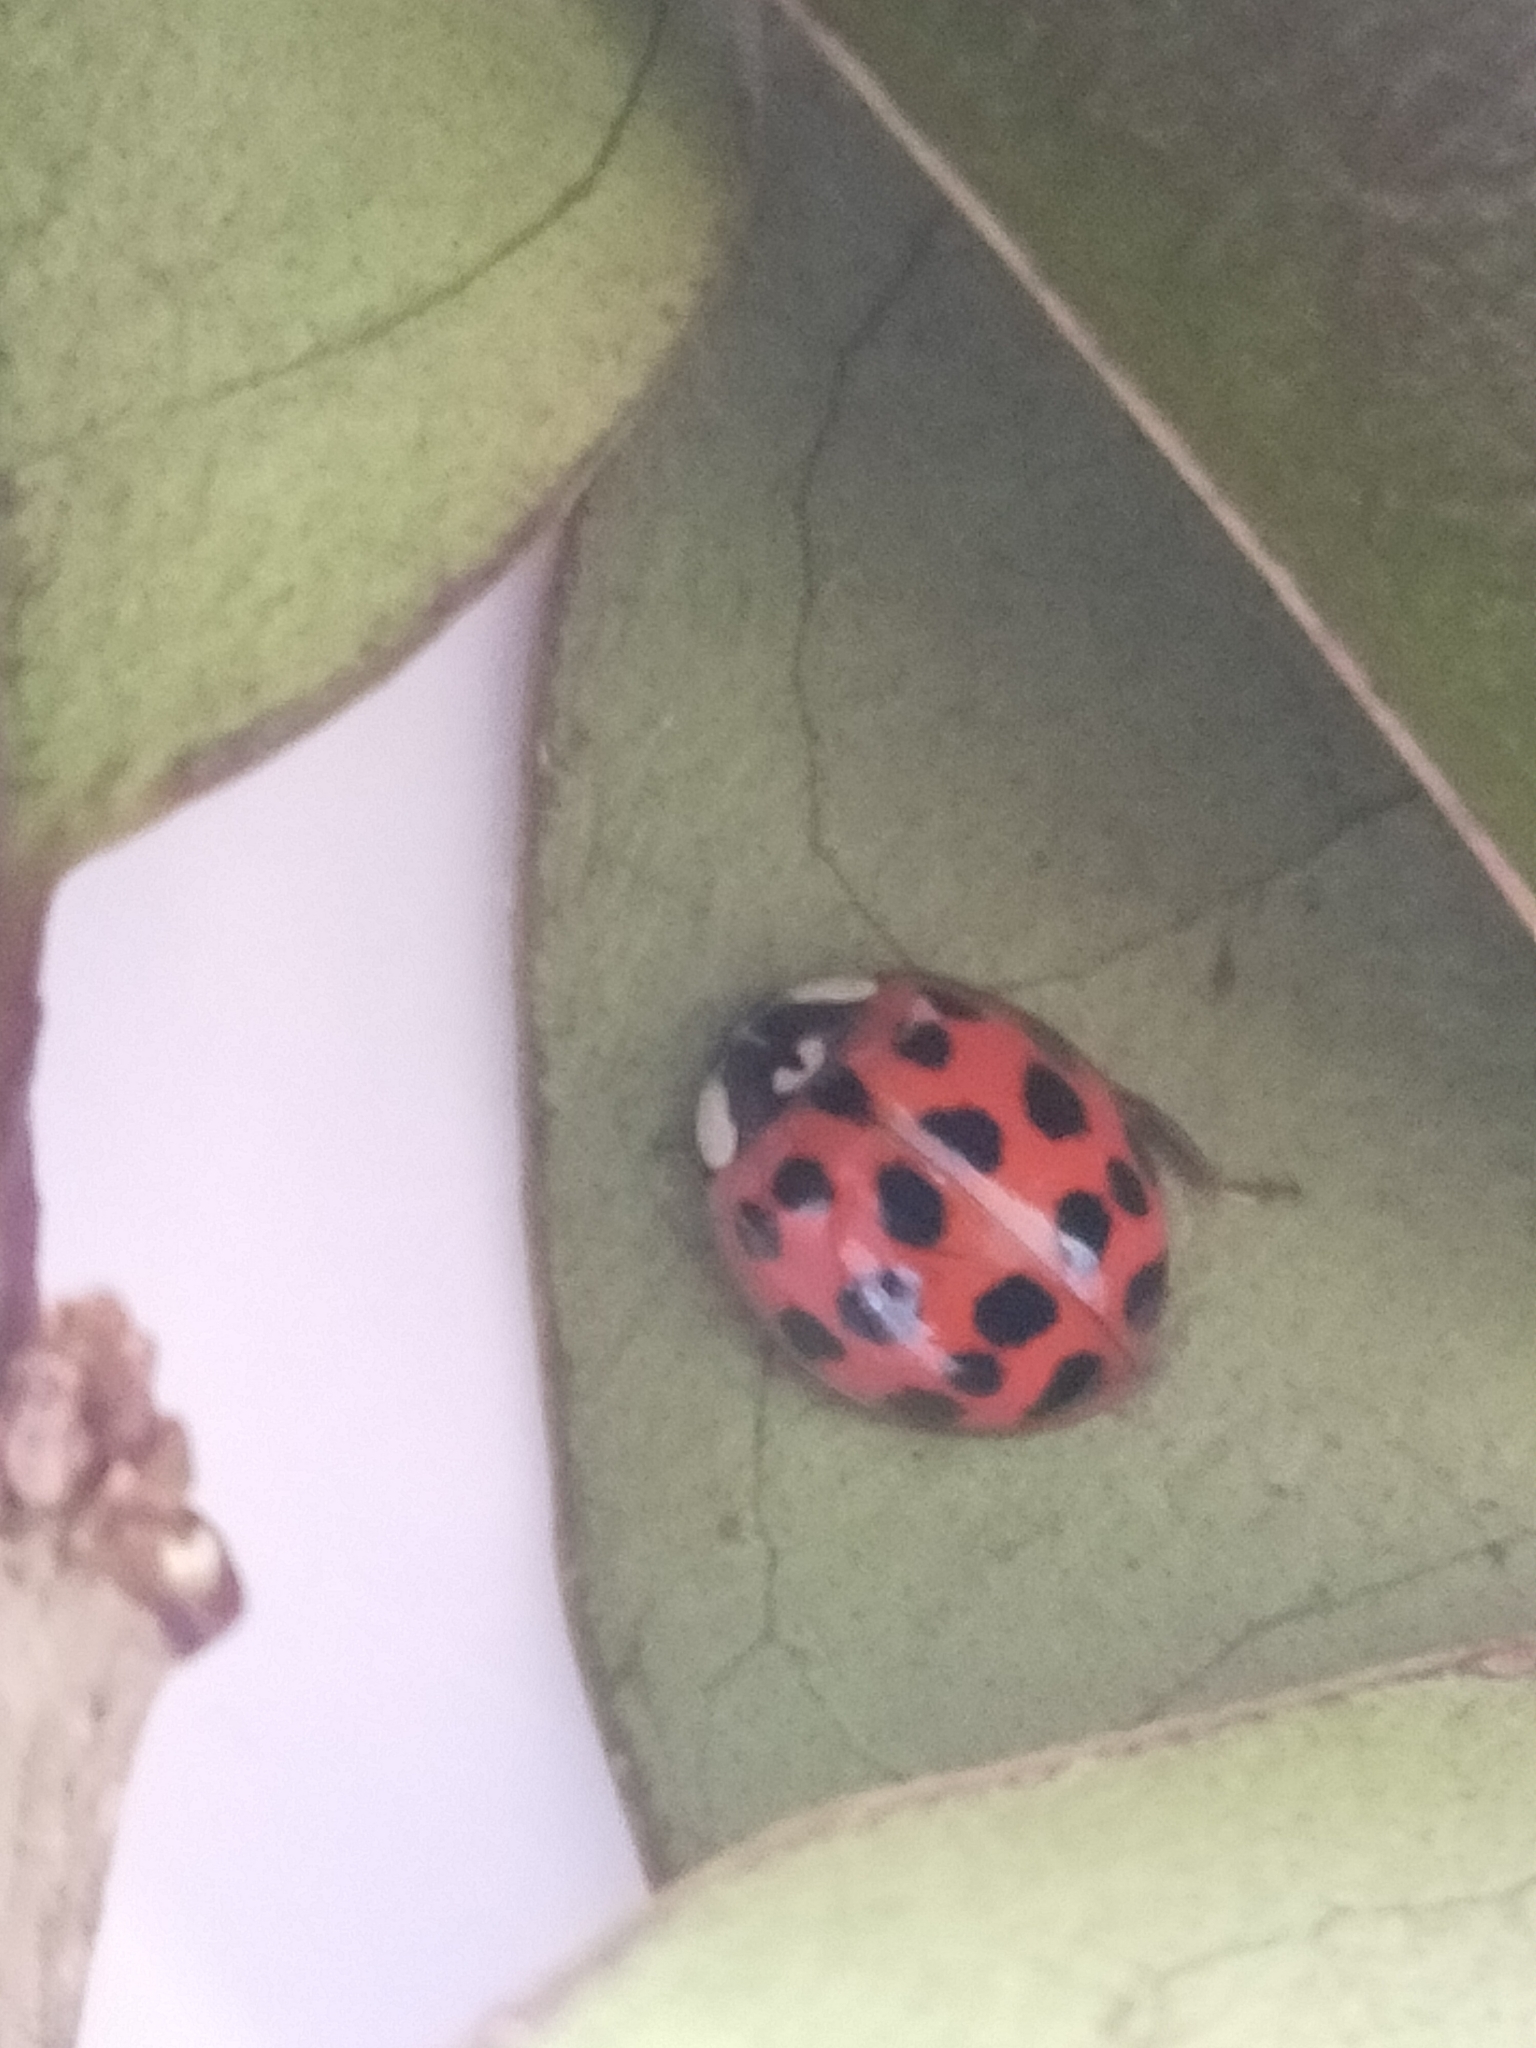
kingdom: Animalia
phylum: Arthropoda
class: Insecta
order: Coleoptera
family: Coccinellidae
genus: Harmonia
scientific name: Harmonia axyridis
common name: Harlequin ladybird
